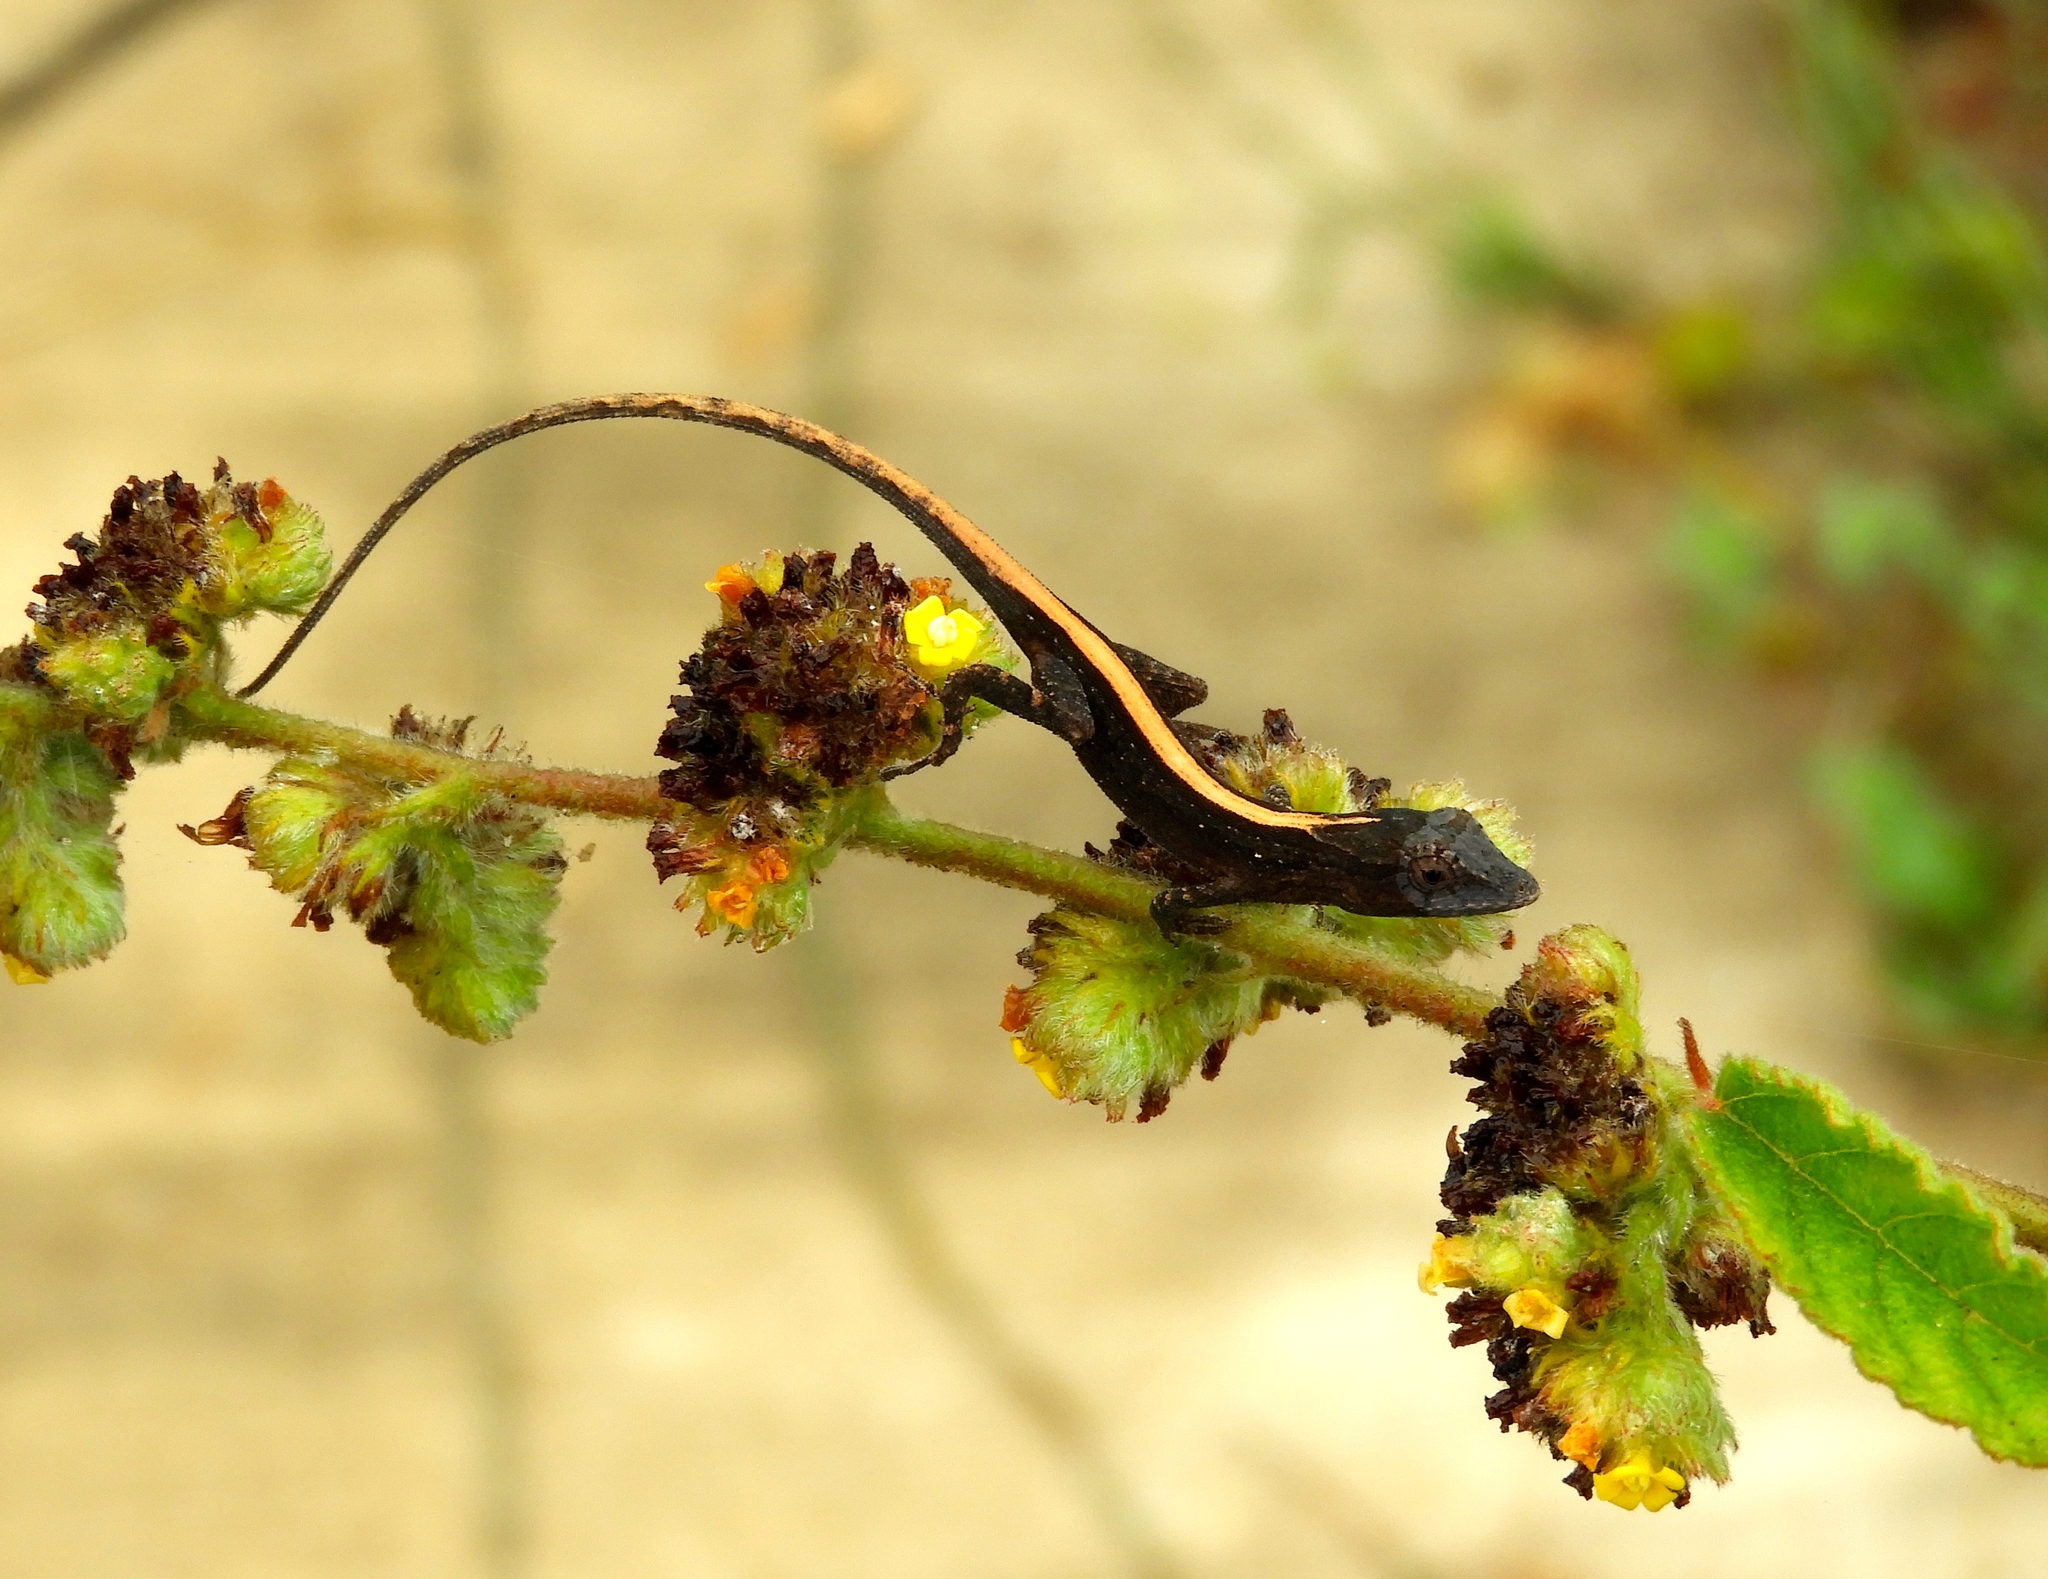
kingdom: Animalia
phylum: Chordata
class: Squamata
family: Dactyloidae
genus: Anolis
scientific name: Anolis nebulosus
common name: Clouded anole
